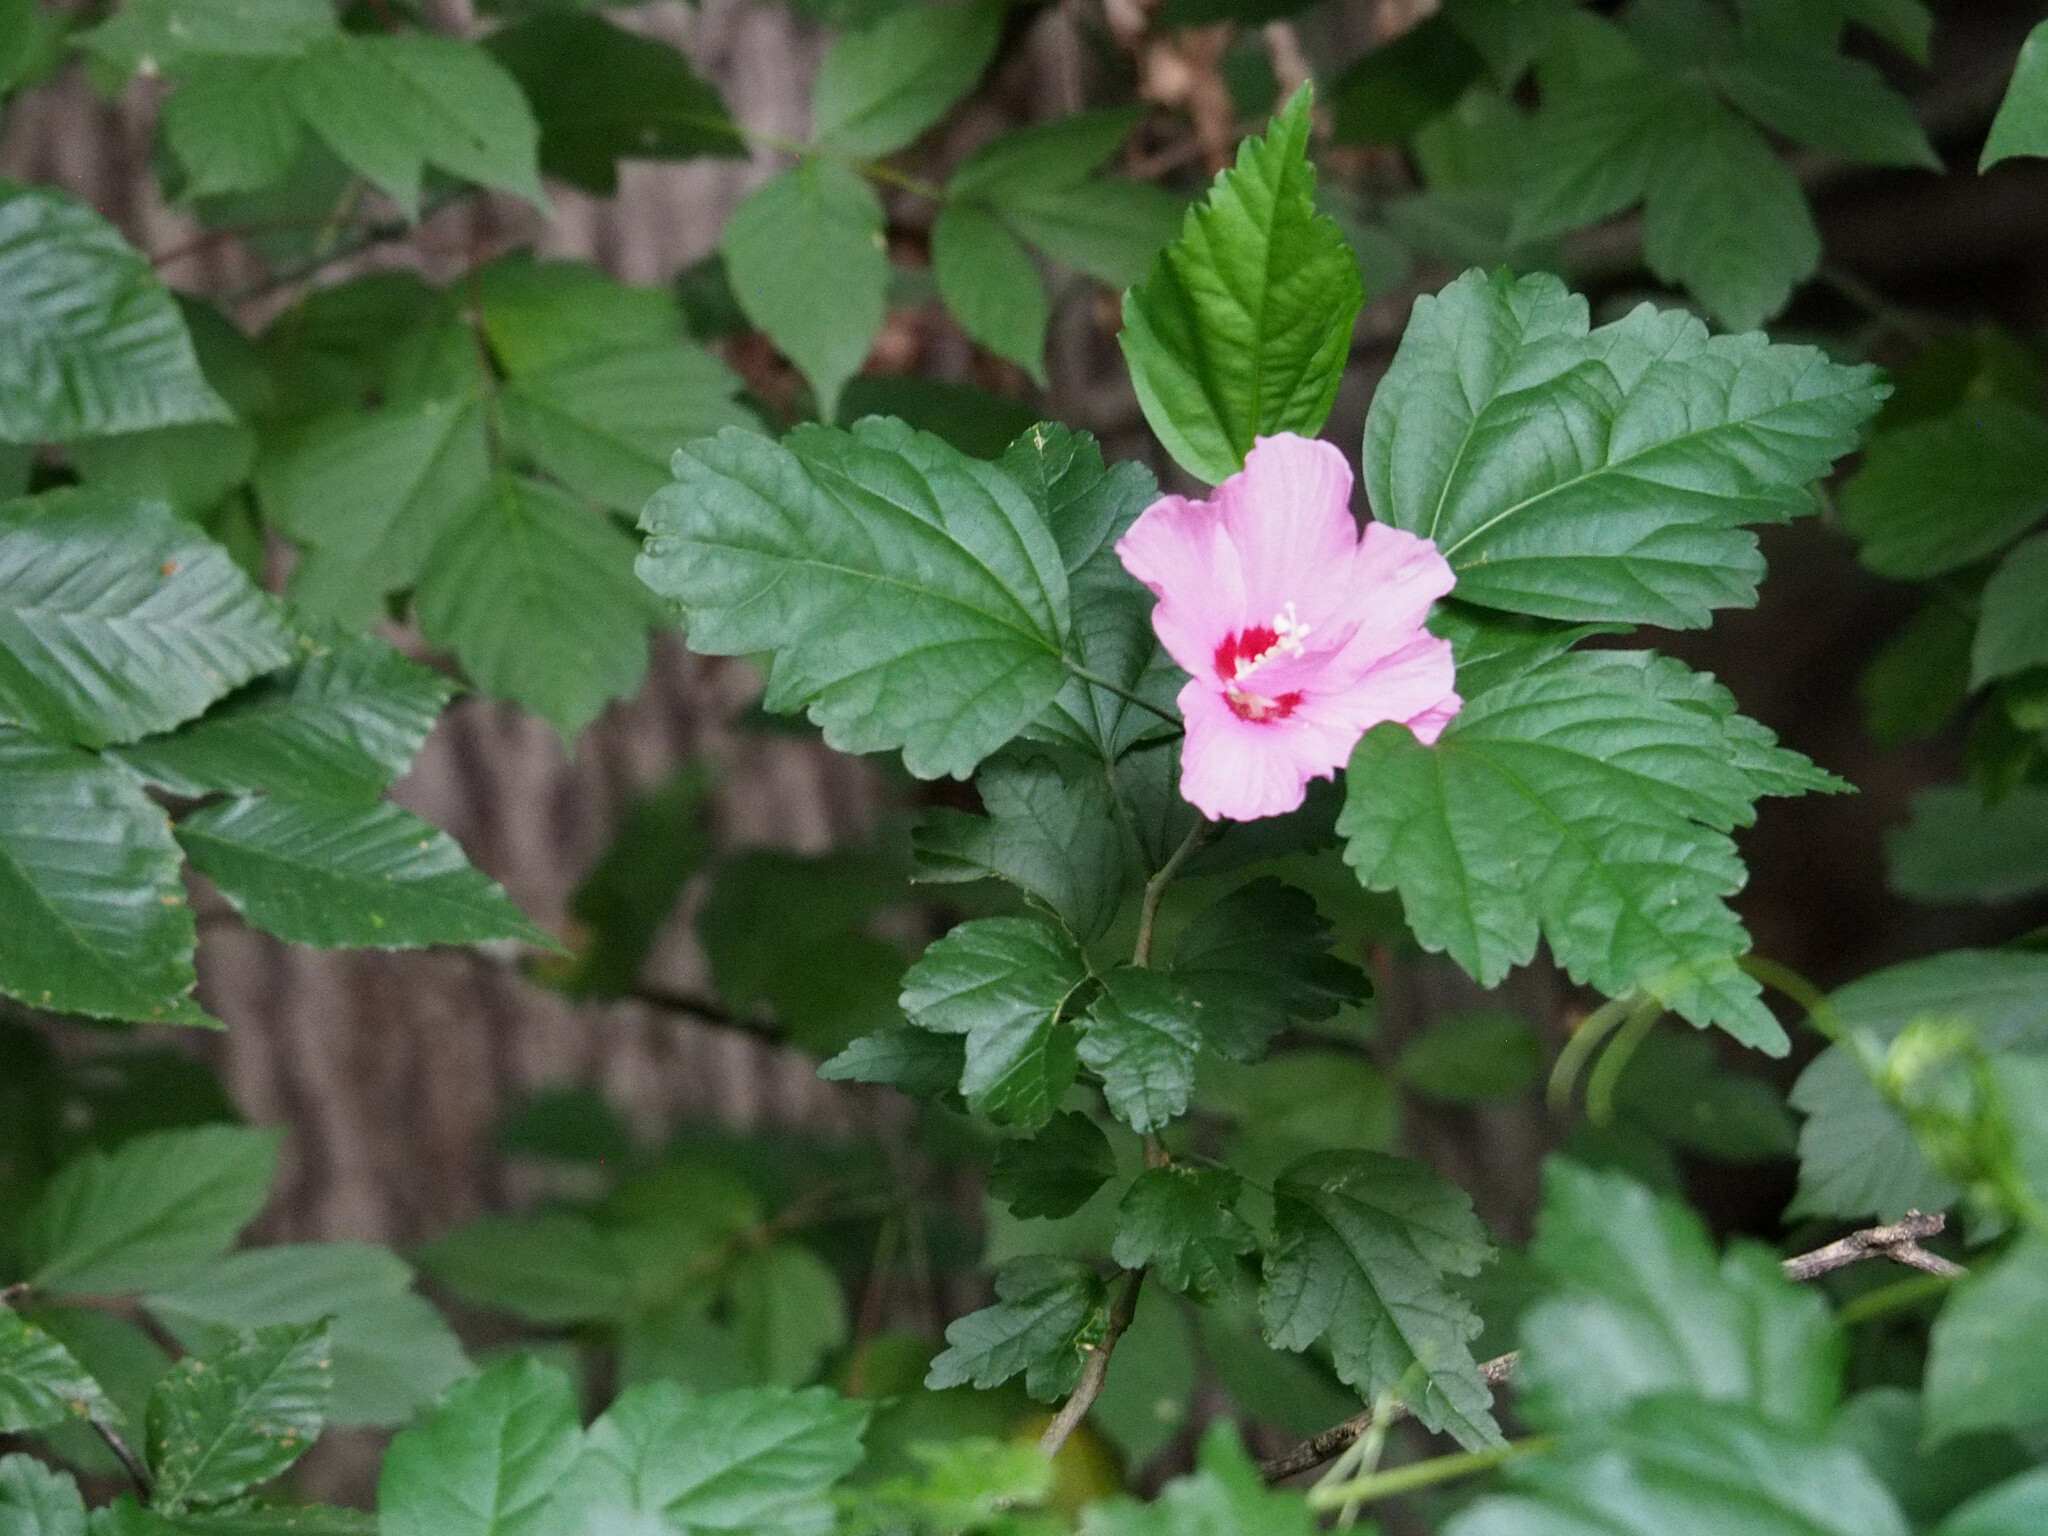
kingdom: Plantae
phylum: Tracheophyta
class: Magnoliopsida
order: Malvales
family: Malvaceae
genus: Hibiscus
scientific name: Hibiscus syriacus
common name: Syrian ketmia
